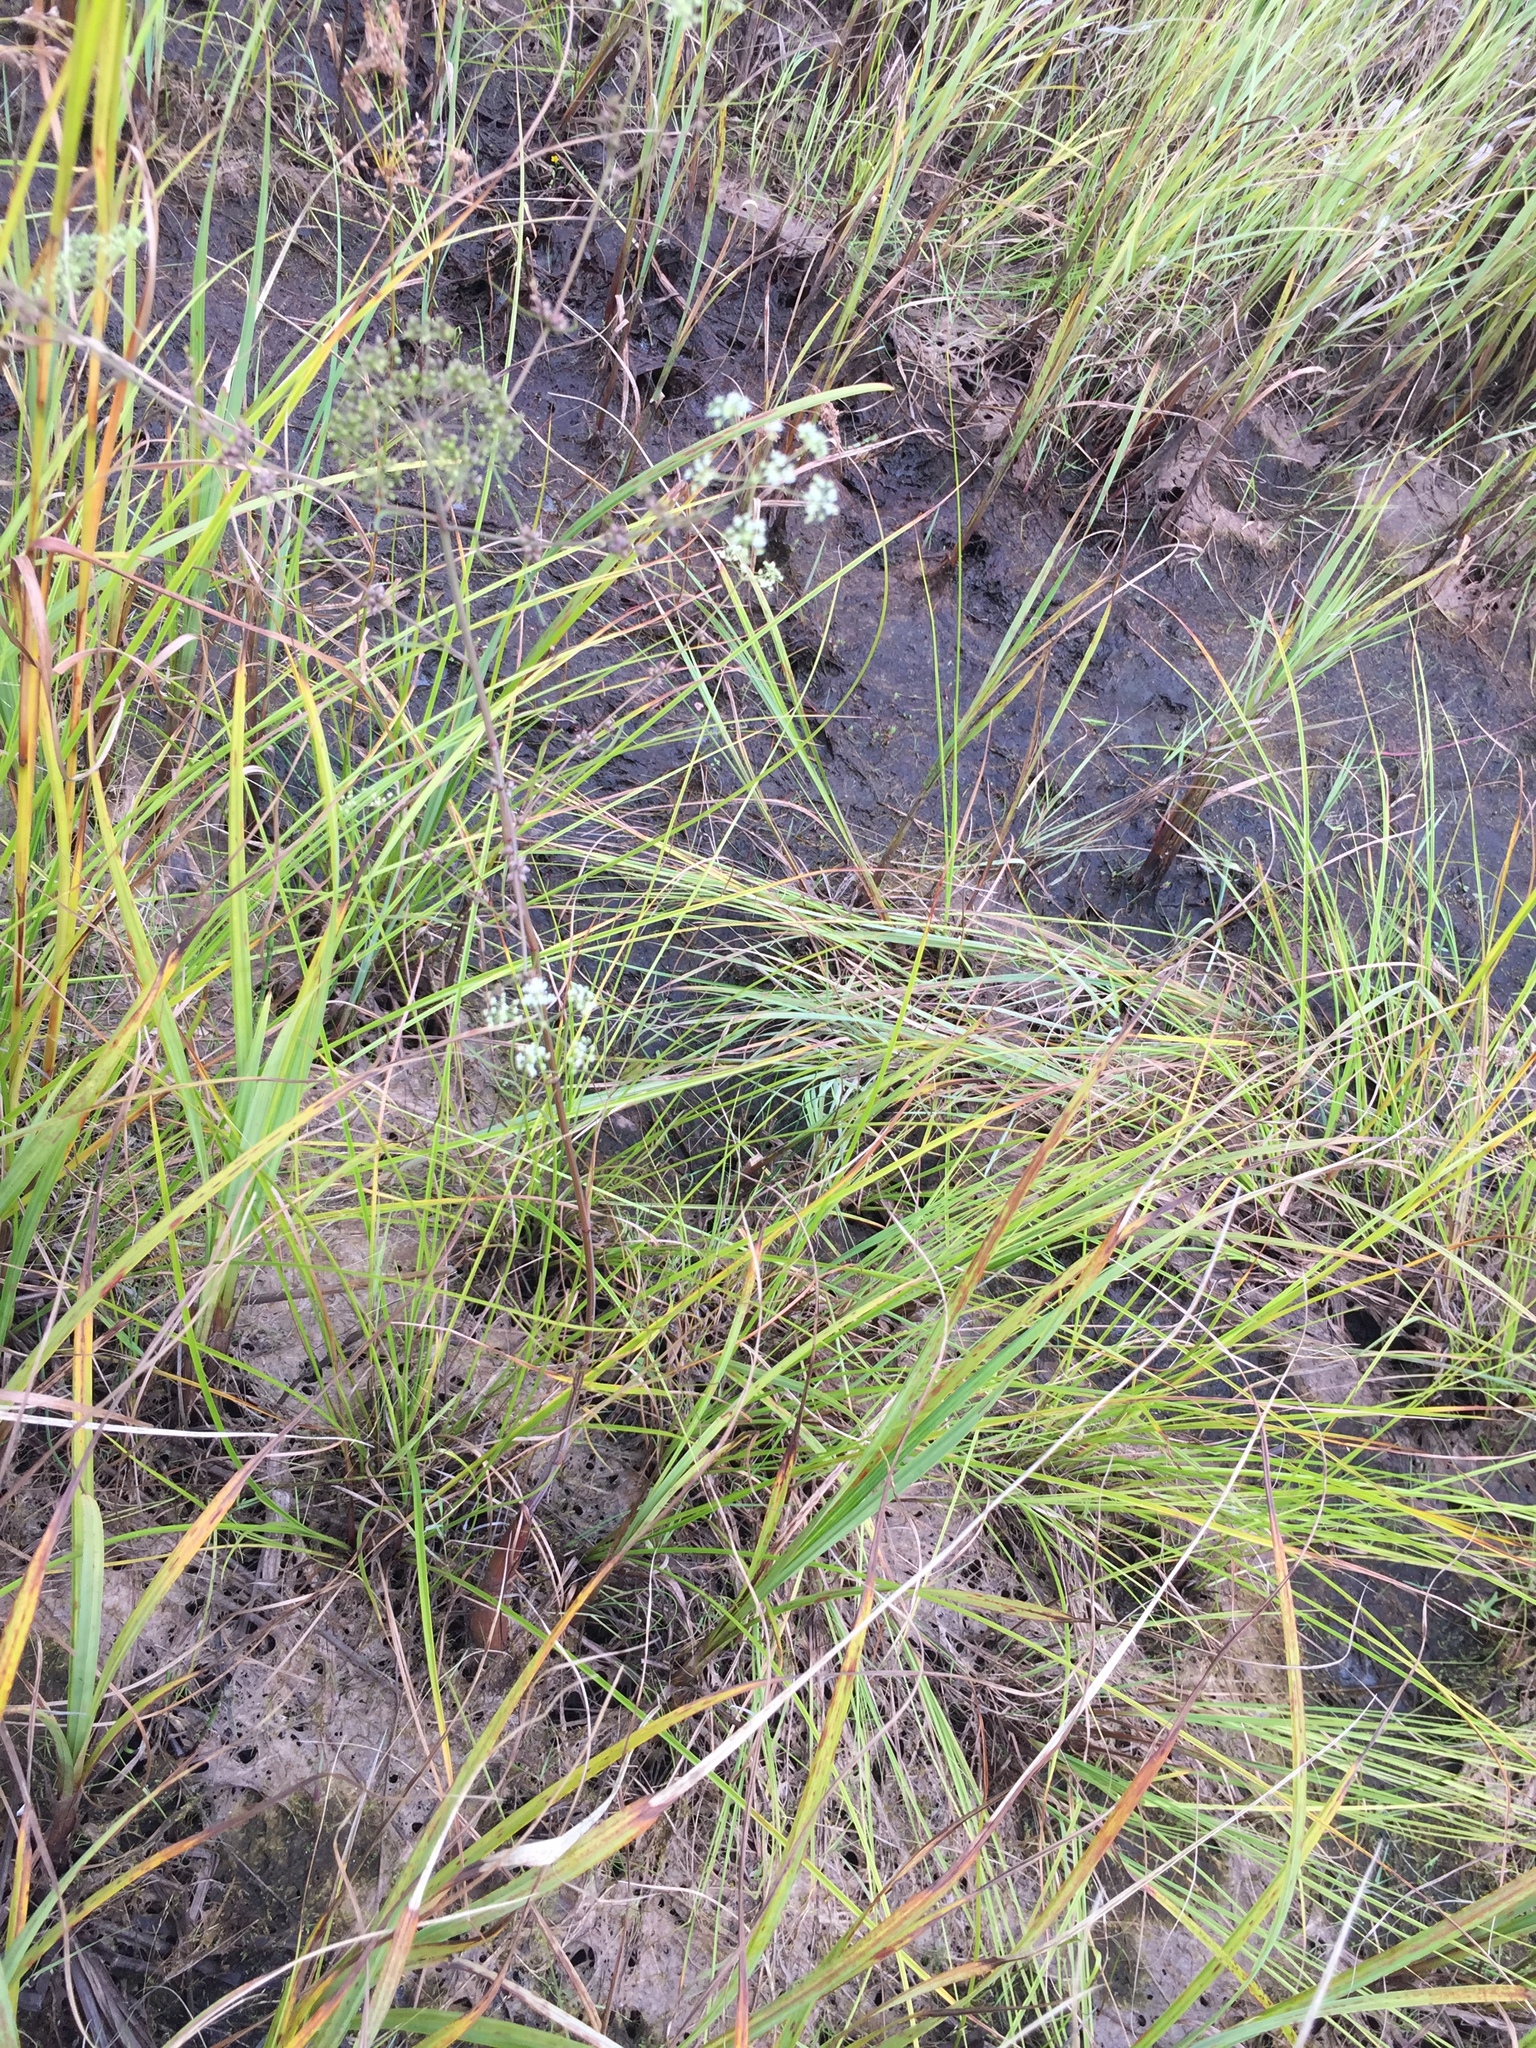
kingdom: Plantae
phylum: Tracheophyta
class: Magnoliopsida
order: Apiales
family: Apiaceae
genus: Cicuta
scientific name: Cicuta bulbifera
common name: Bulb-bearing water-hemlock
